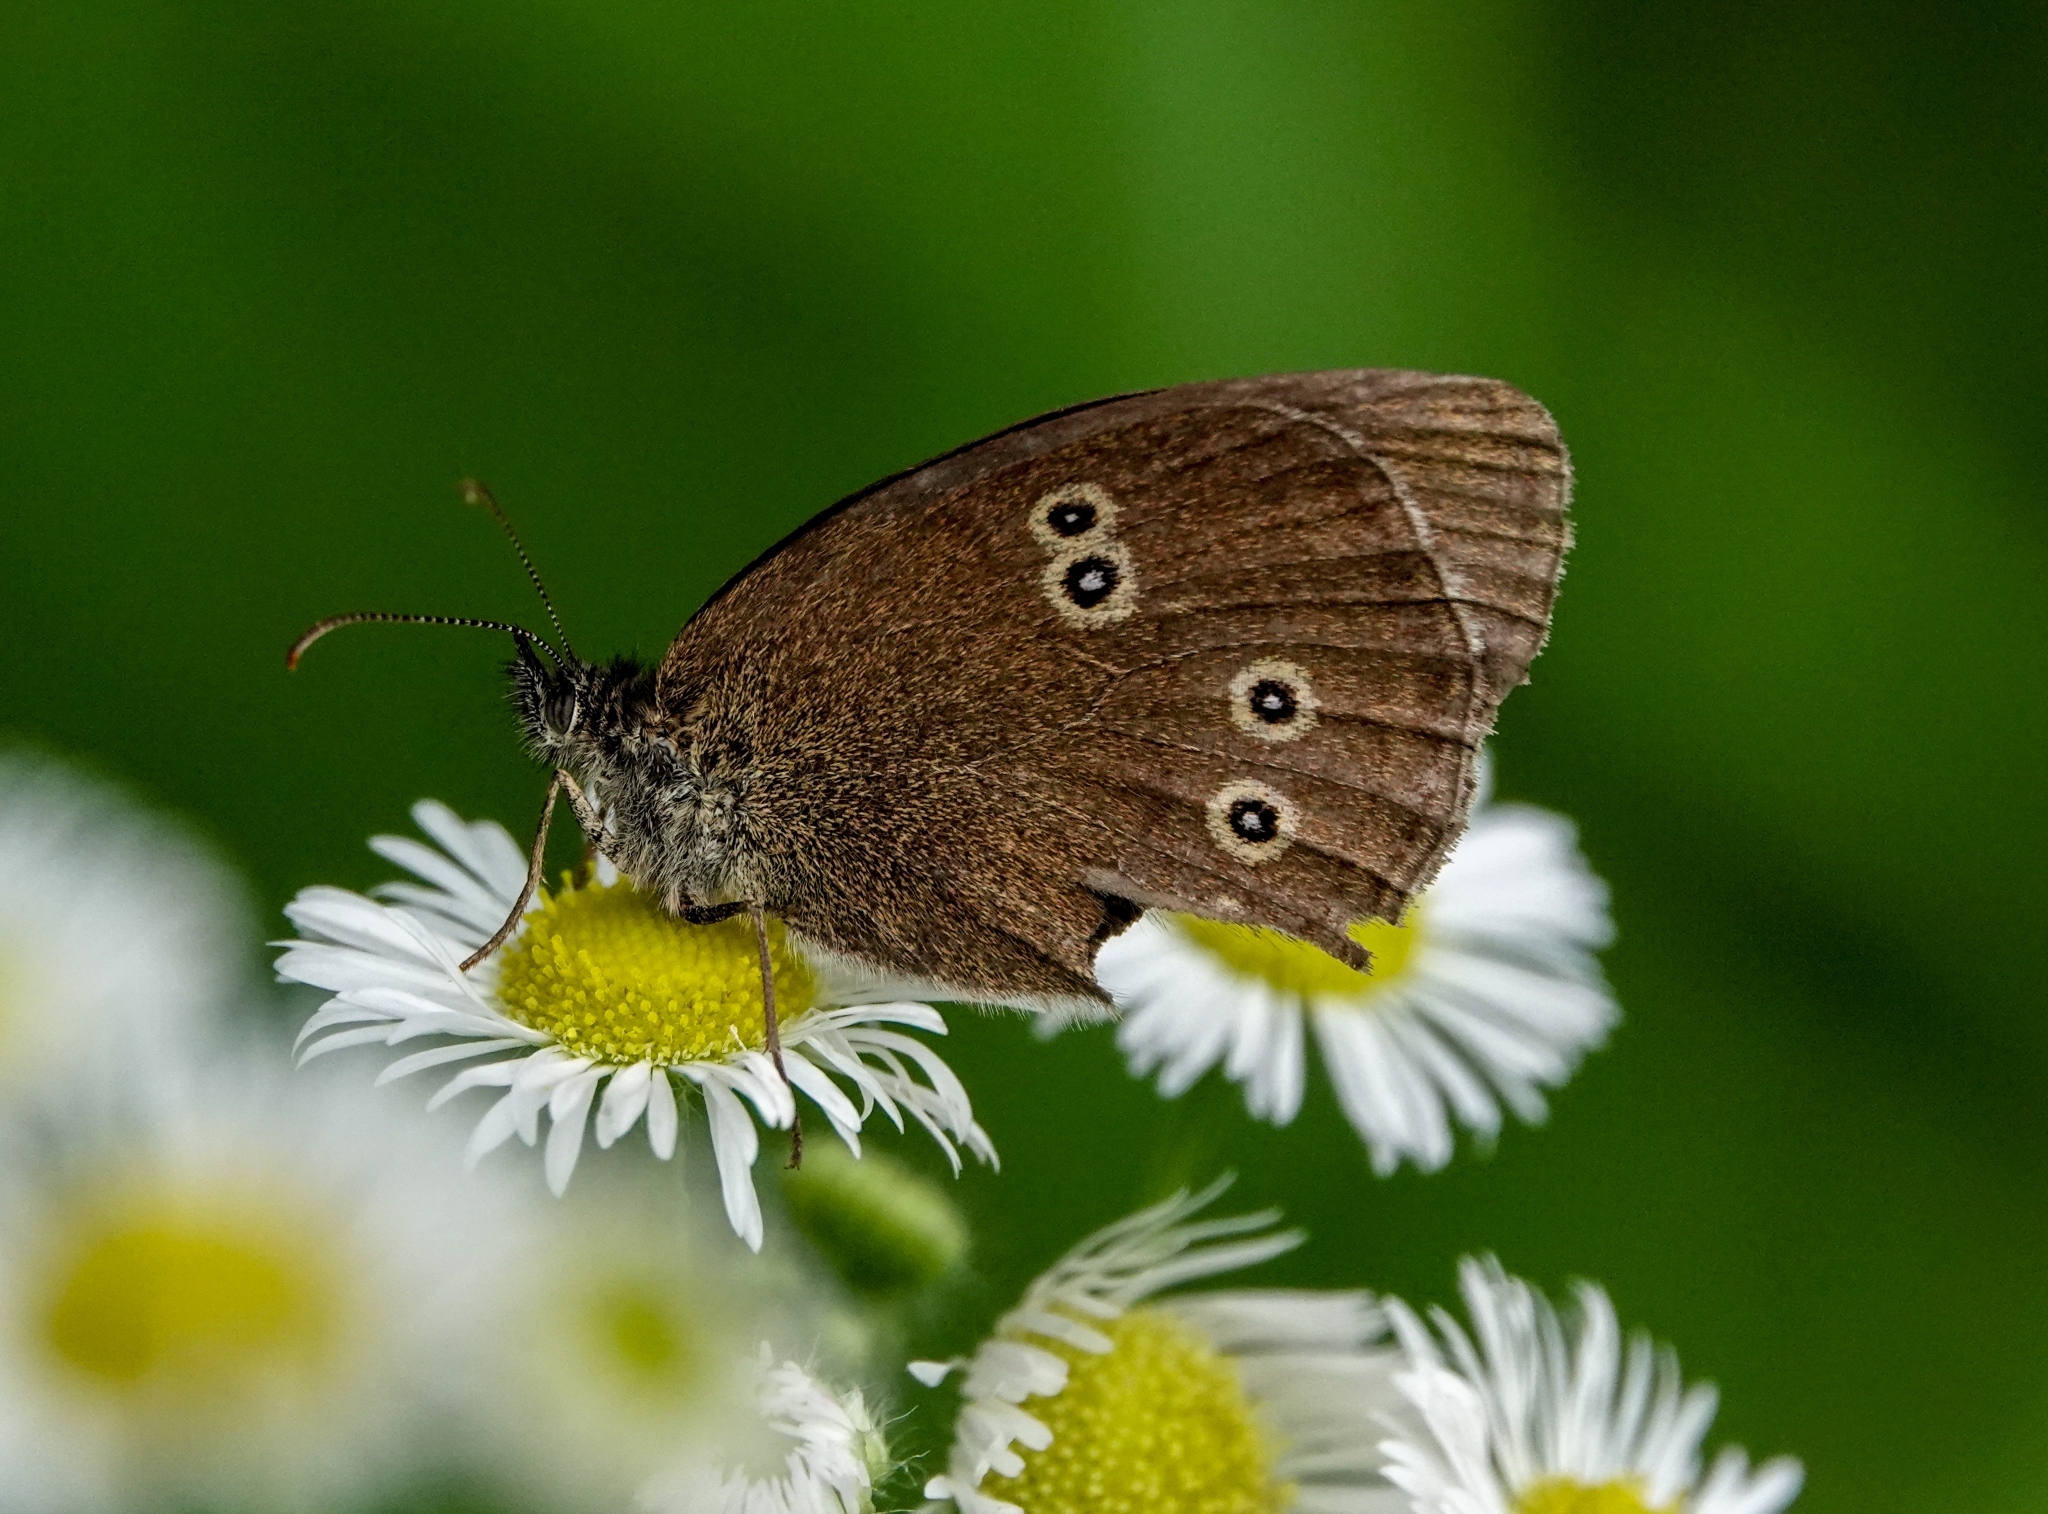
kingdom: Animalia
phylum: Arthropoda
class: Insecta
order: Lepidoptera
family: Nymphalidae
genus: Aphantopus
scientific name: Aphantopus hyperantus
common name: Ringlet
